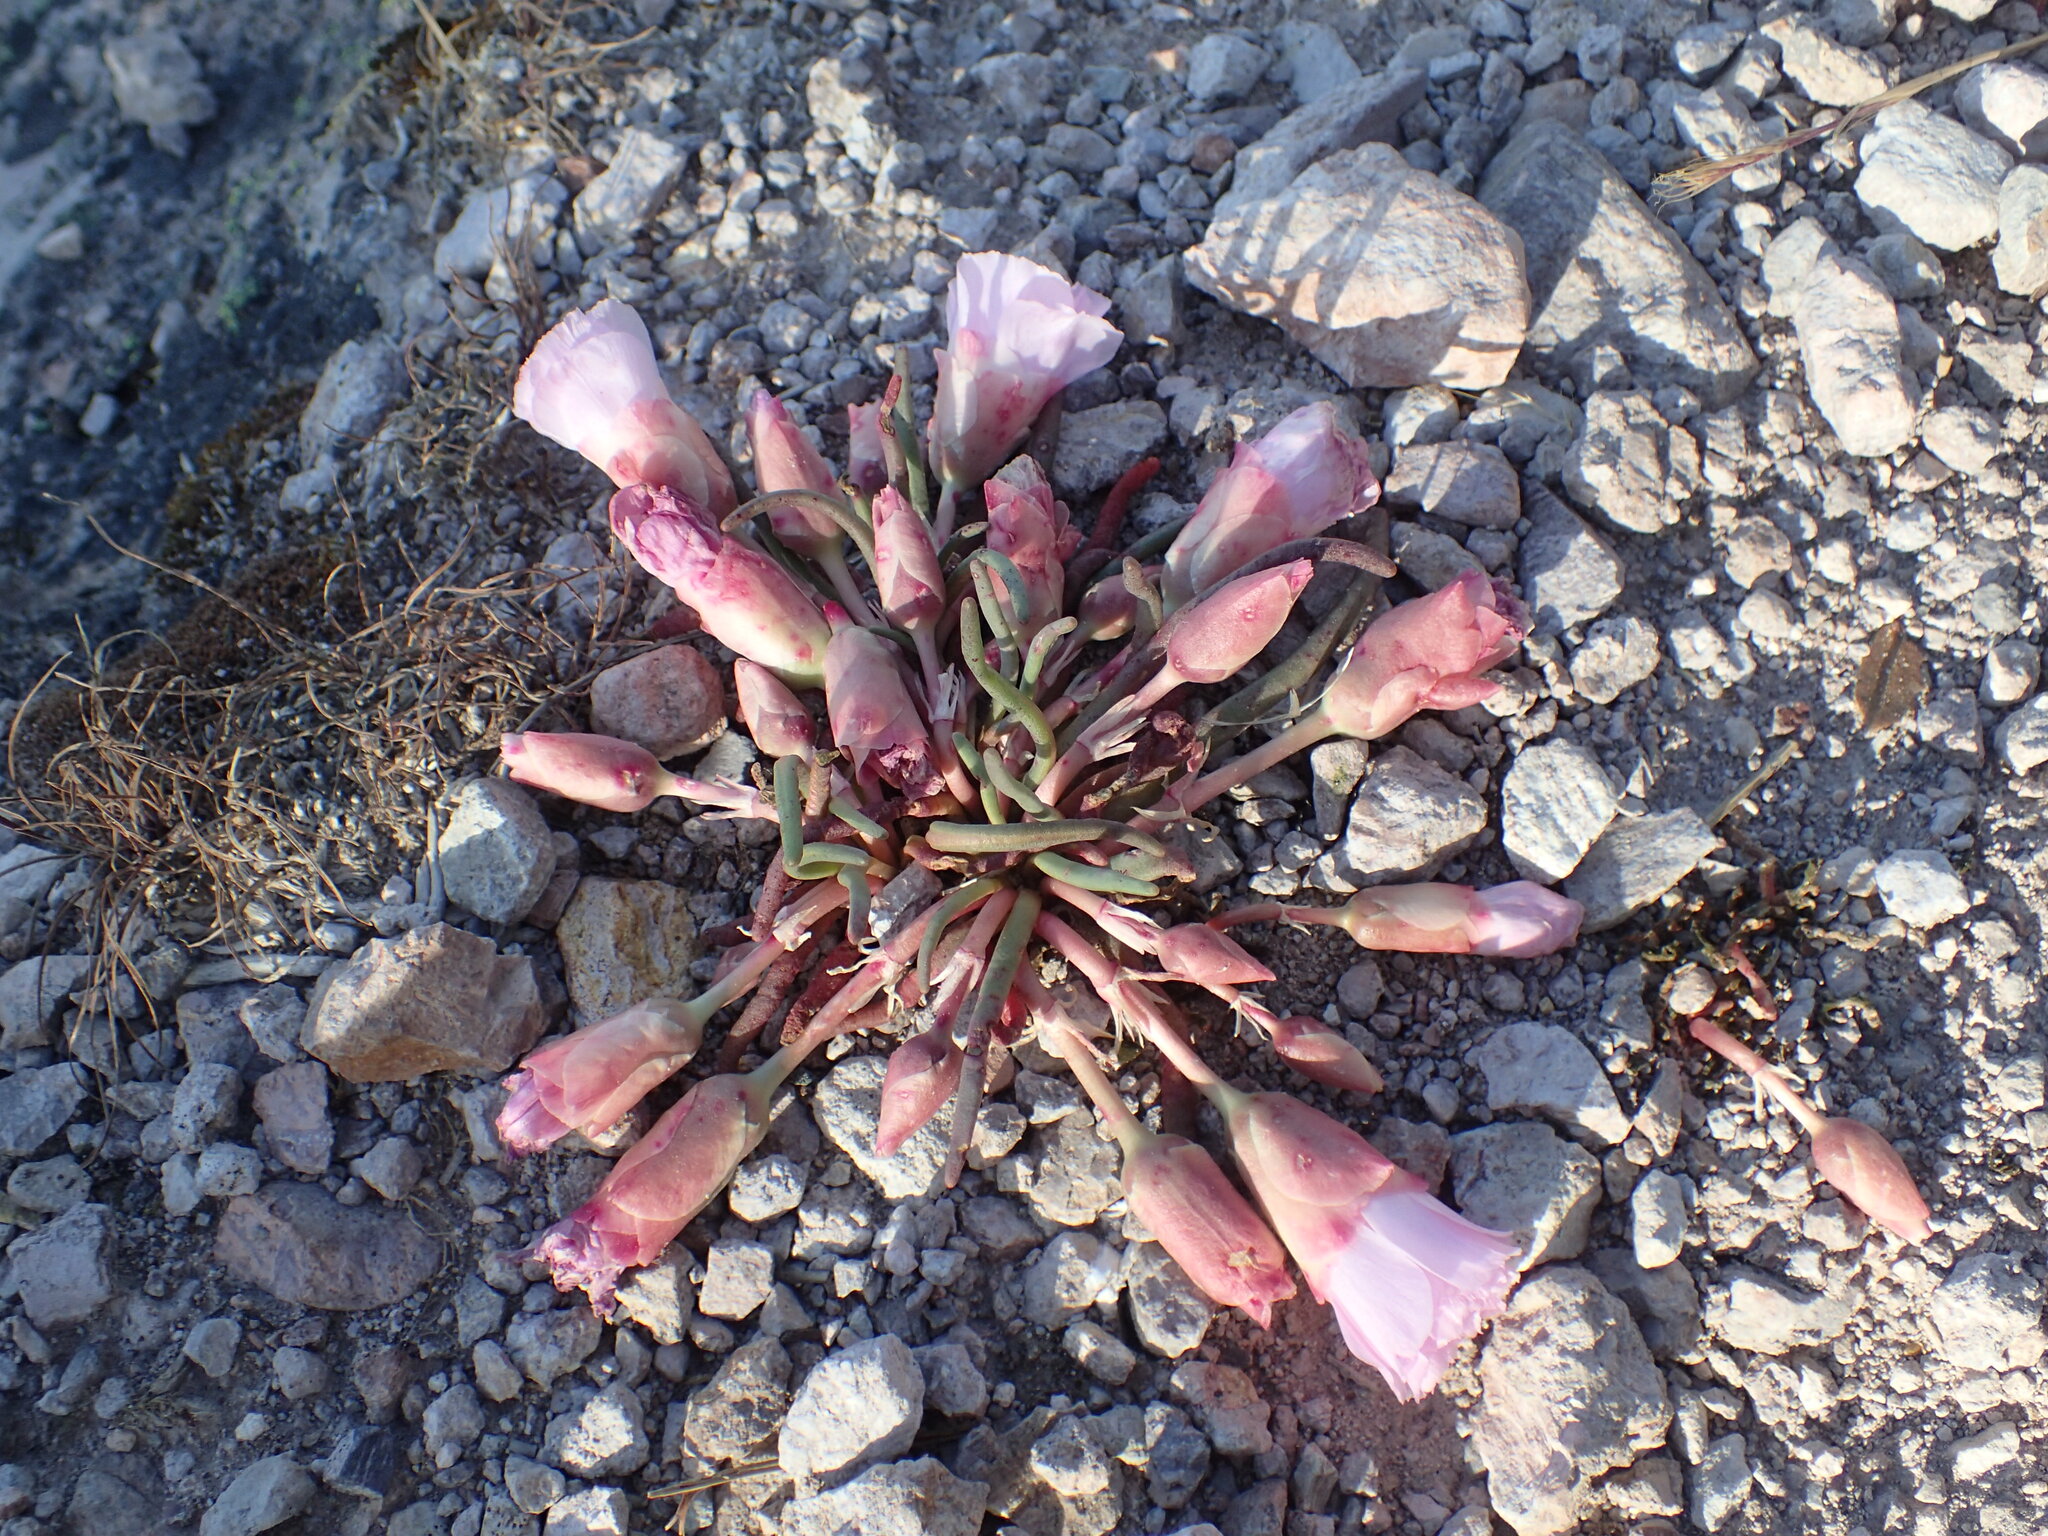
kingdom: Plantae
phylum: Tracheophyta
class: Magnoliopsida
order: Caryophyllales
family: Montiaceae
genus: Lewisia
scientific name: Lewisia rediviva
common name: Bitter-root
